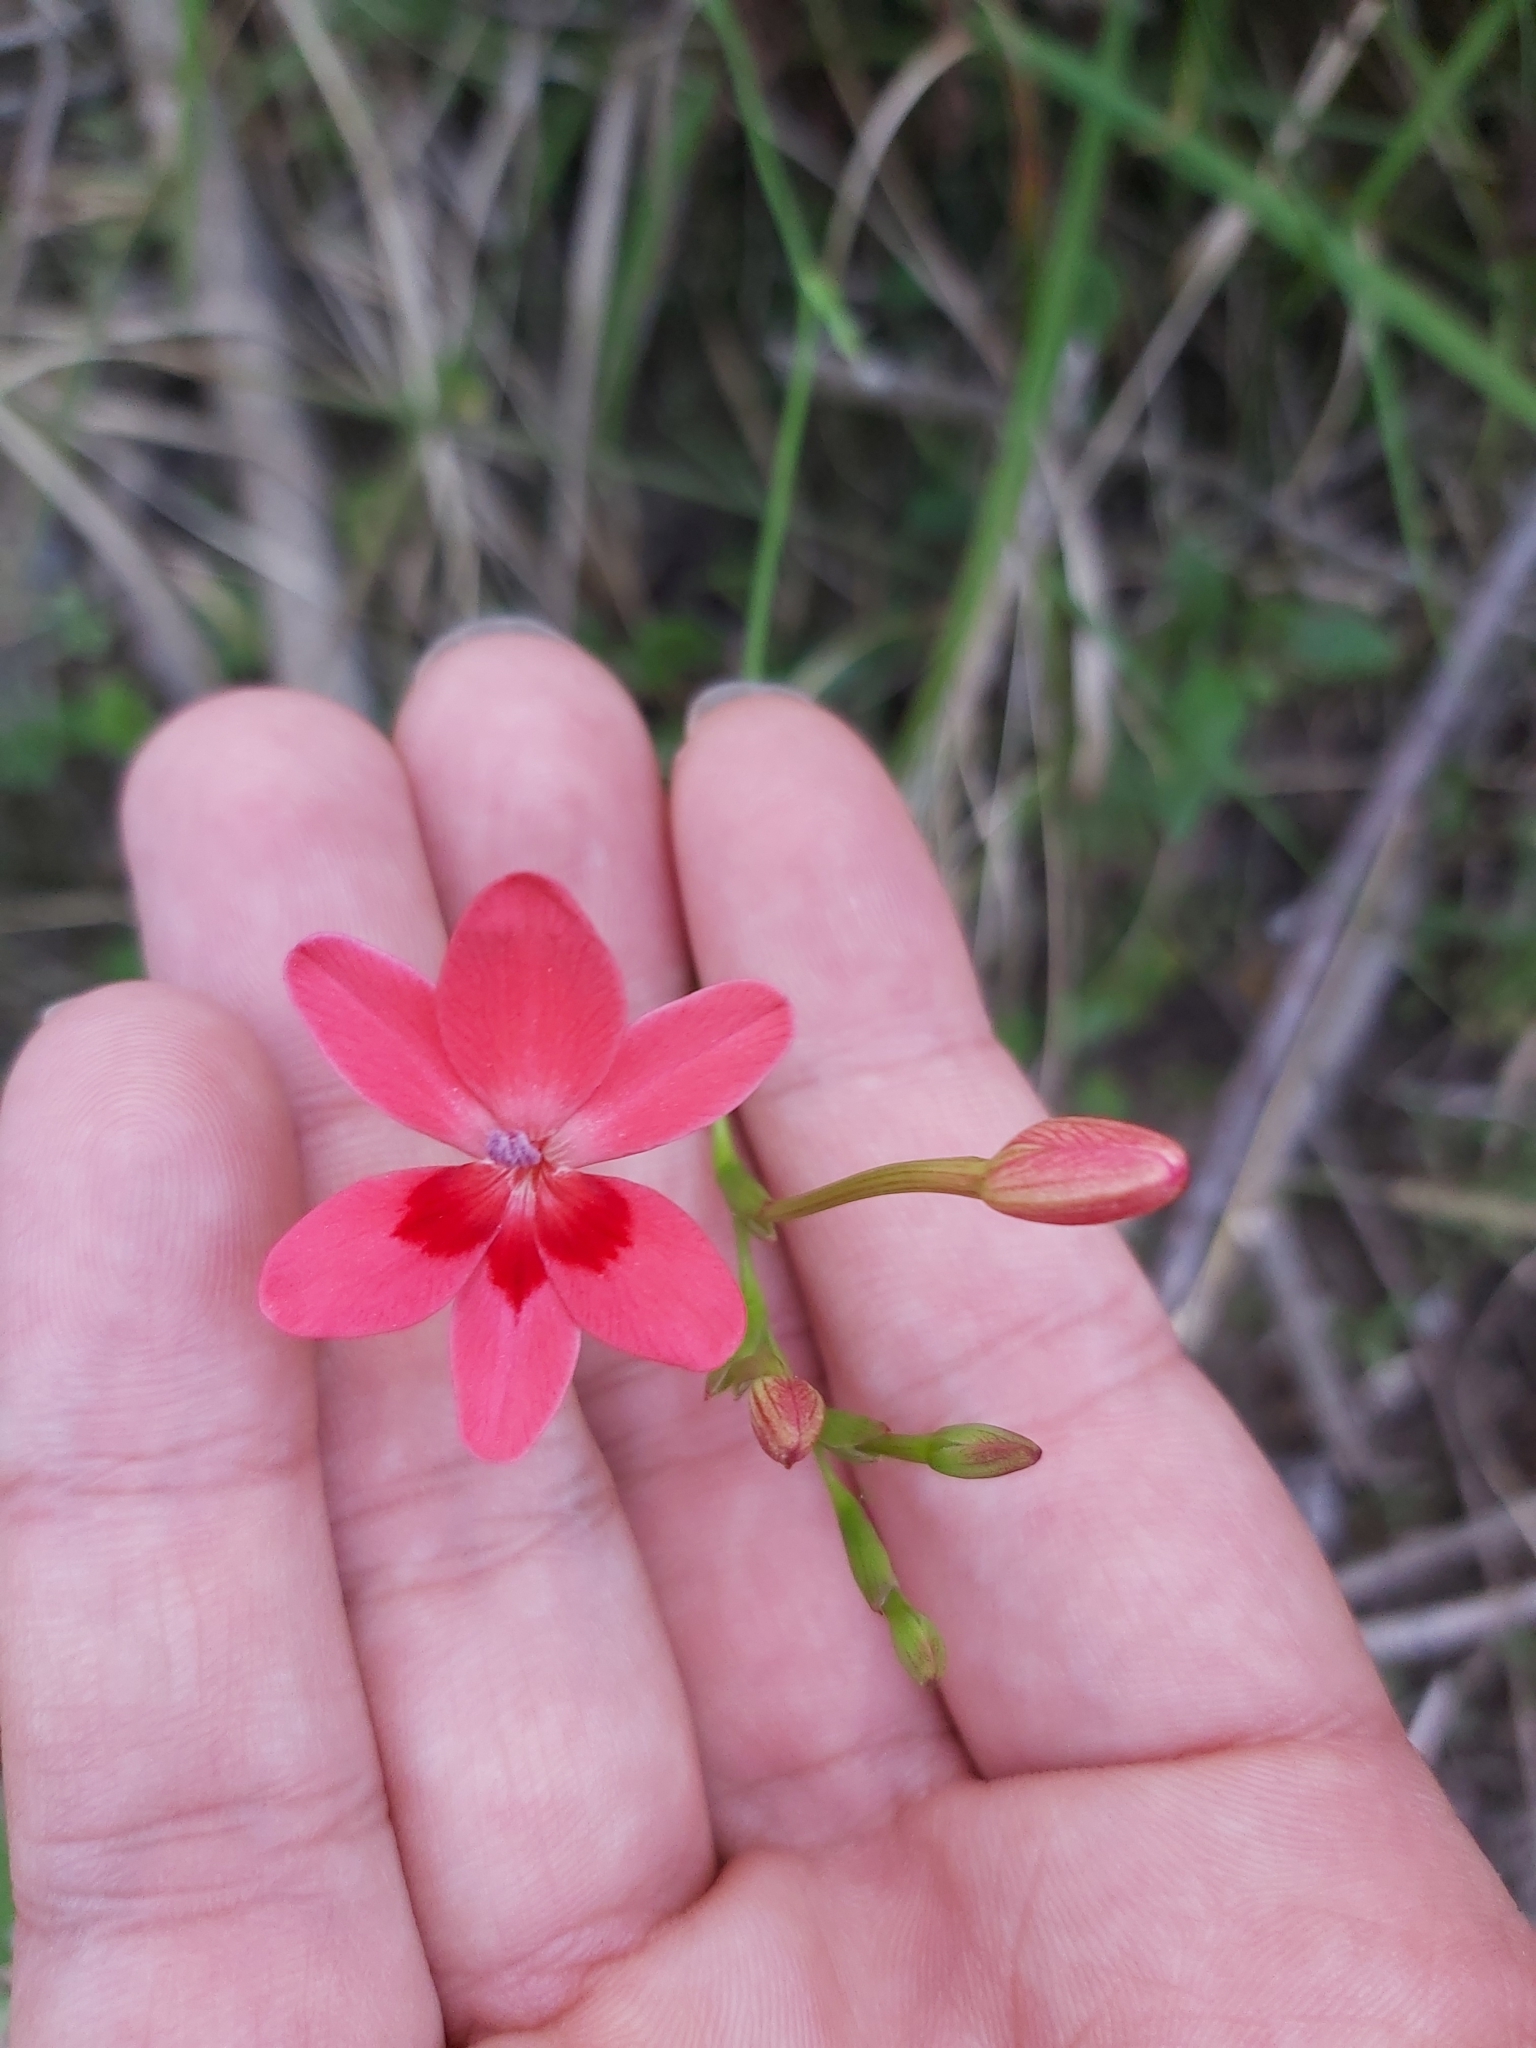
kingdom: Plantae
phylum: Tracheophyta
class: Liliopsida
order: Asparagales
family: Iridaceae
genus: Freesia
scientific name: Freesia laxa
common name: False freesia
